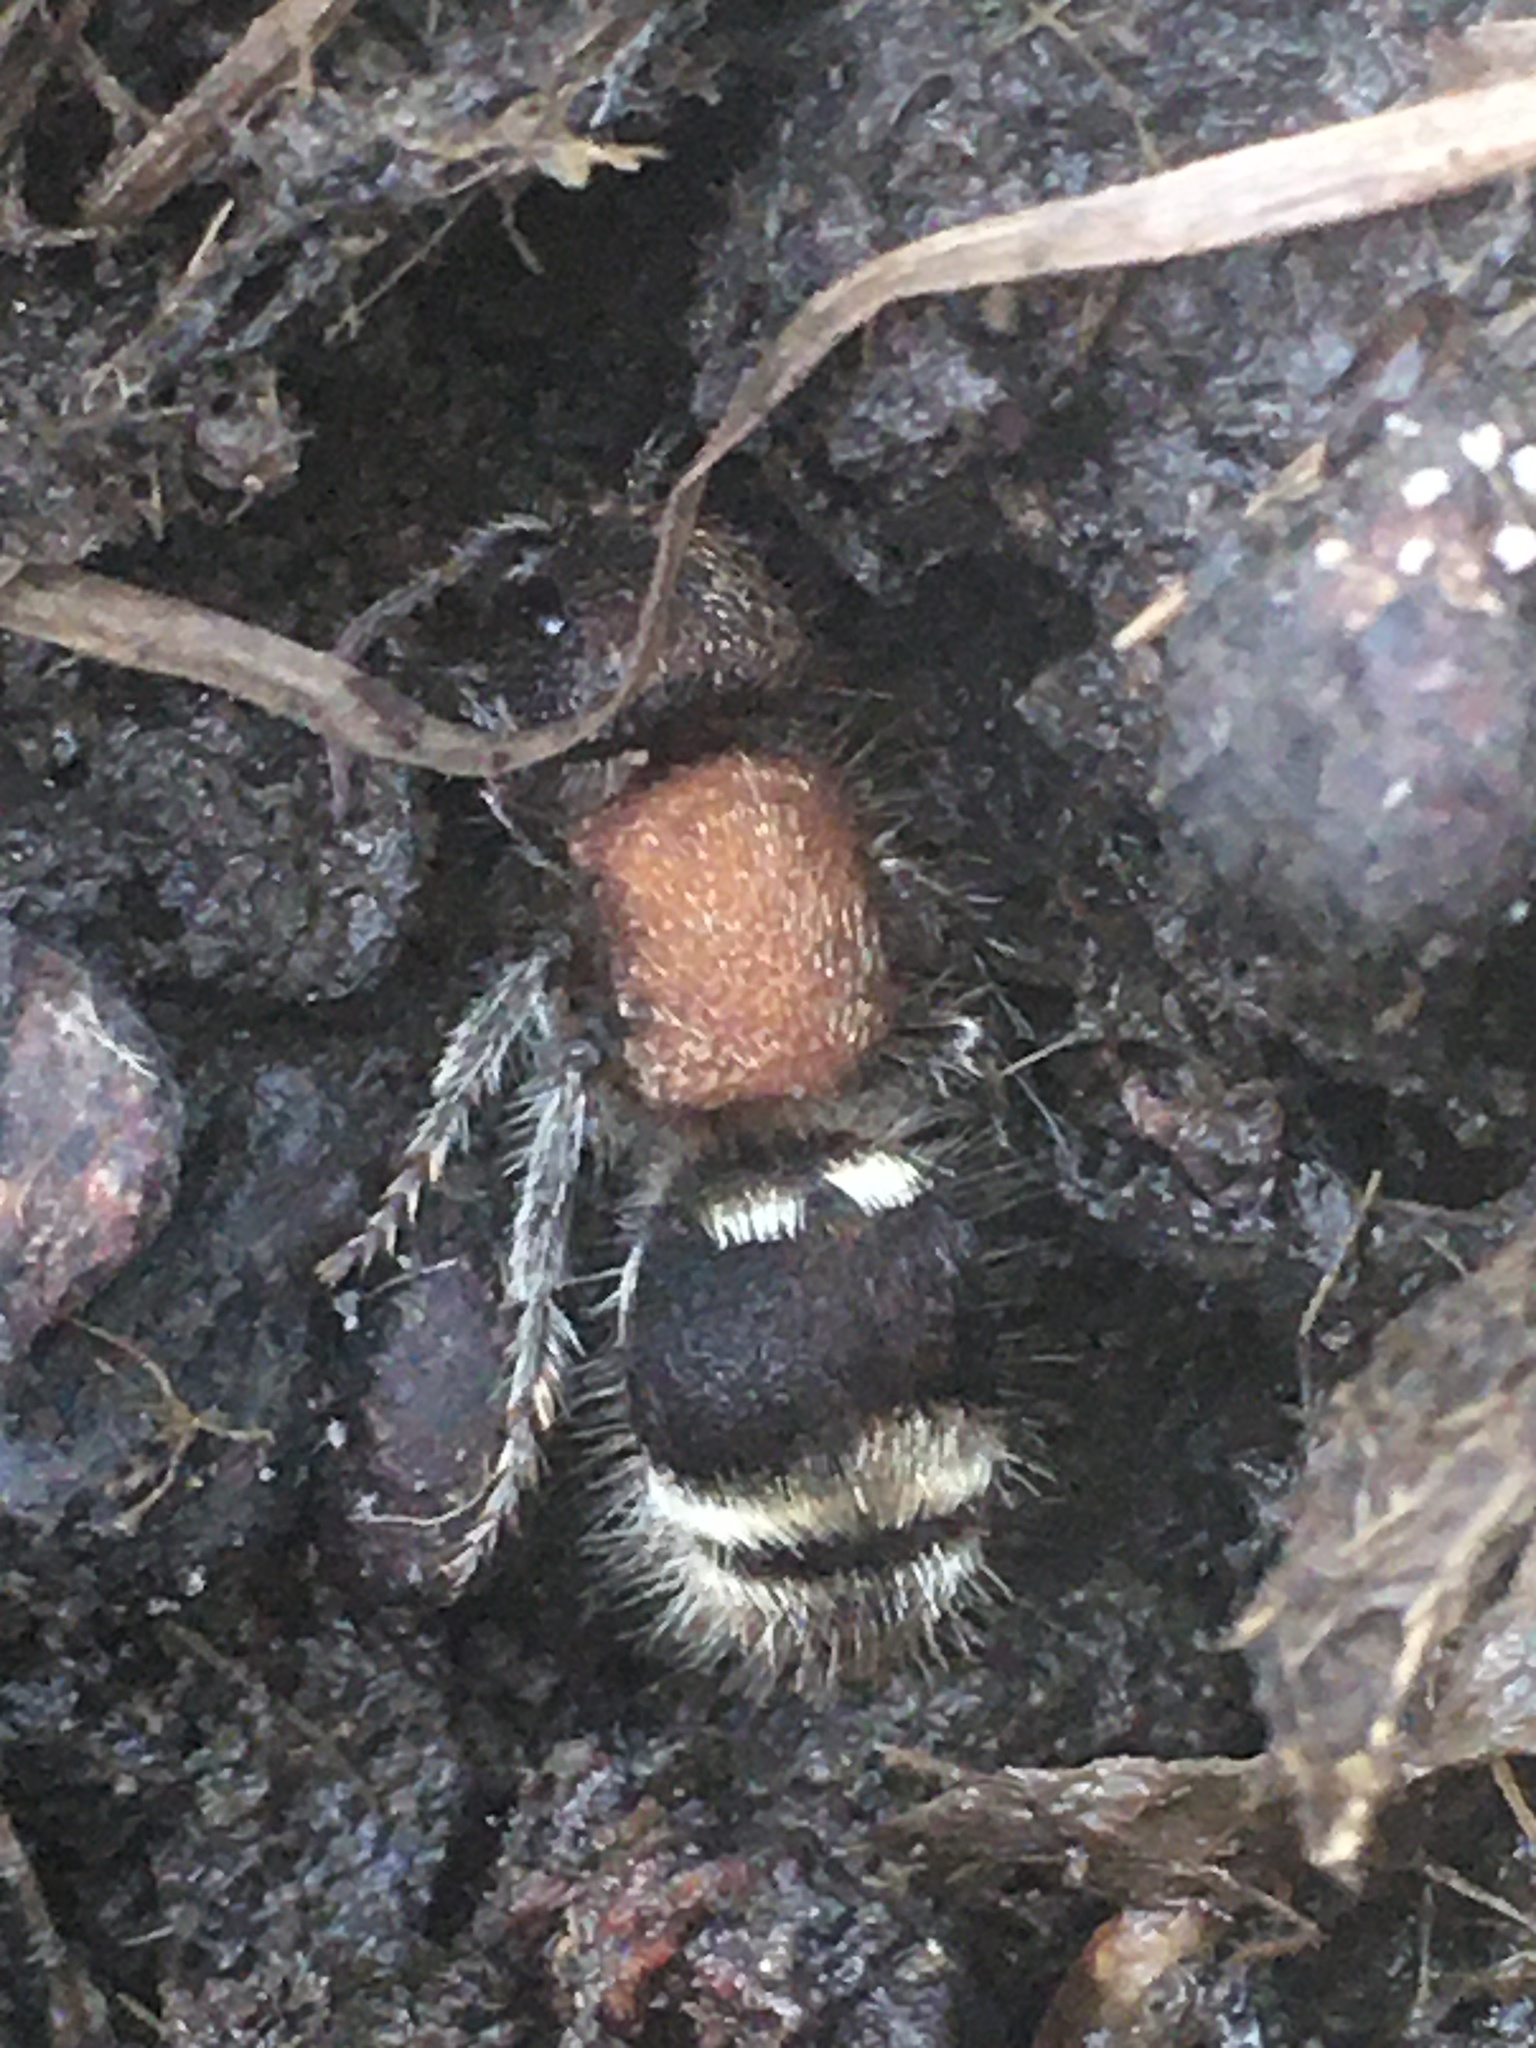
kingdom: Animalia
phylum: Arthropoda
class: Insecta
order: Hymenoptera
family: Mutillidae
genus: Tropidotilla
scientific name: Tropidotilla litoralis
